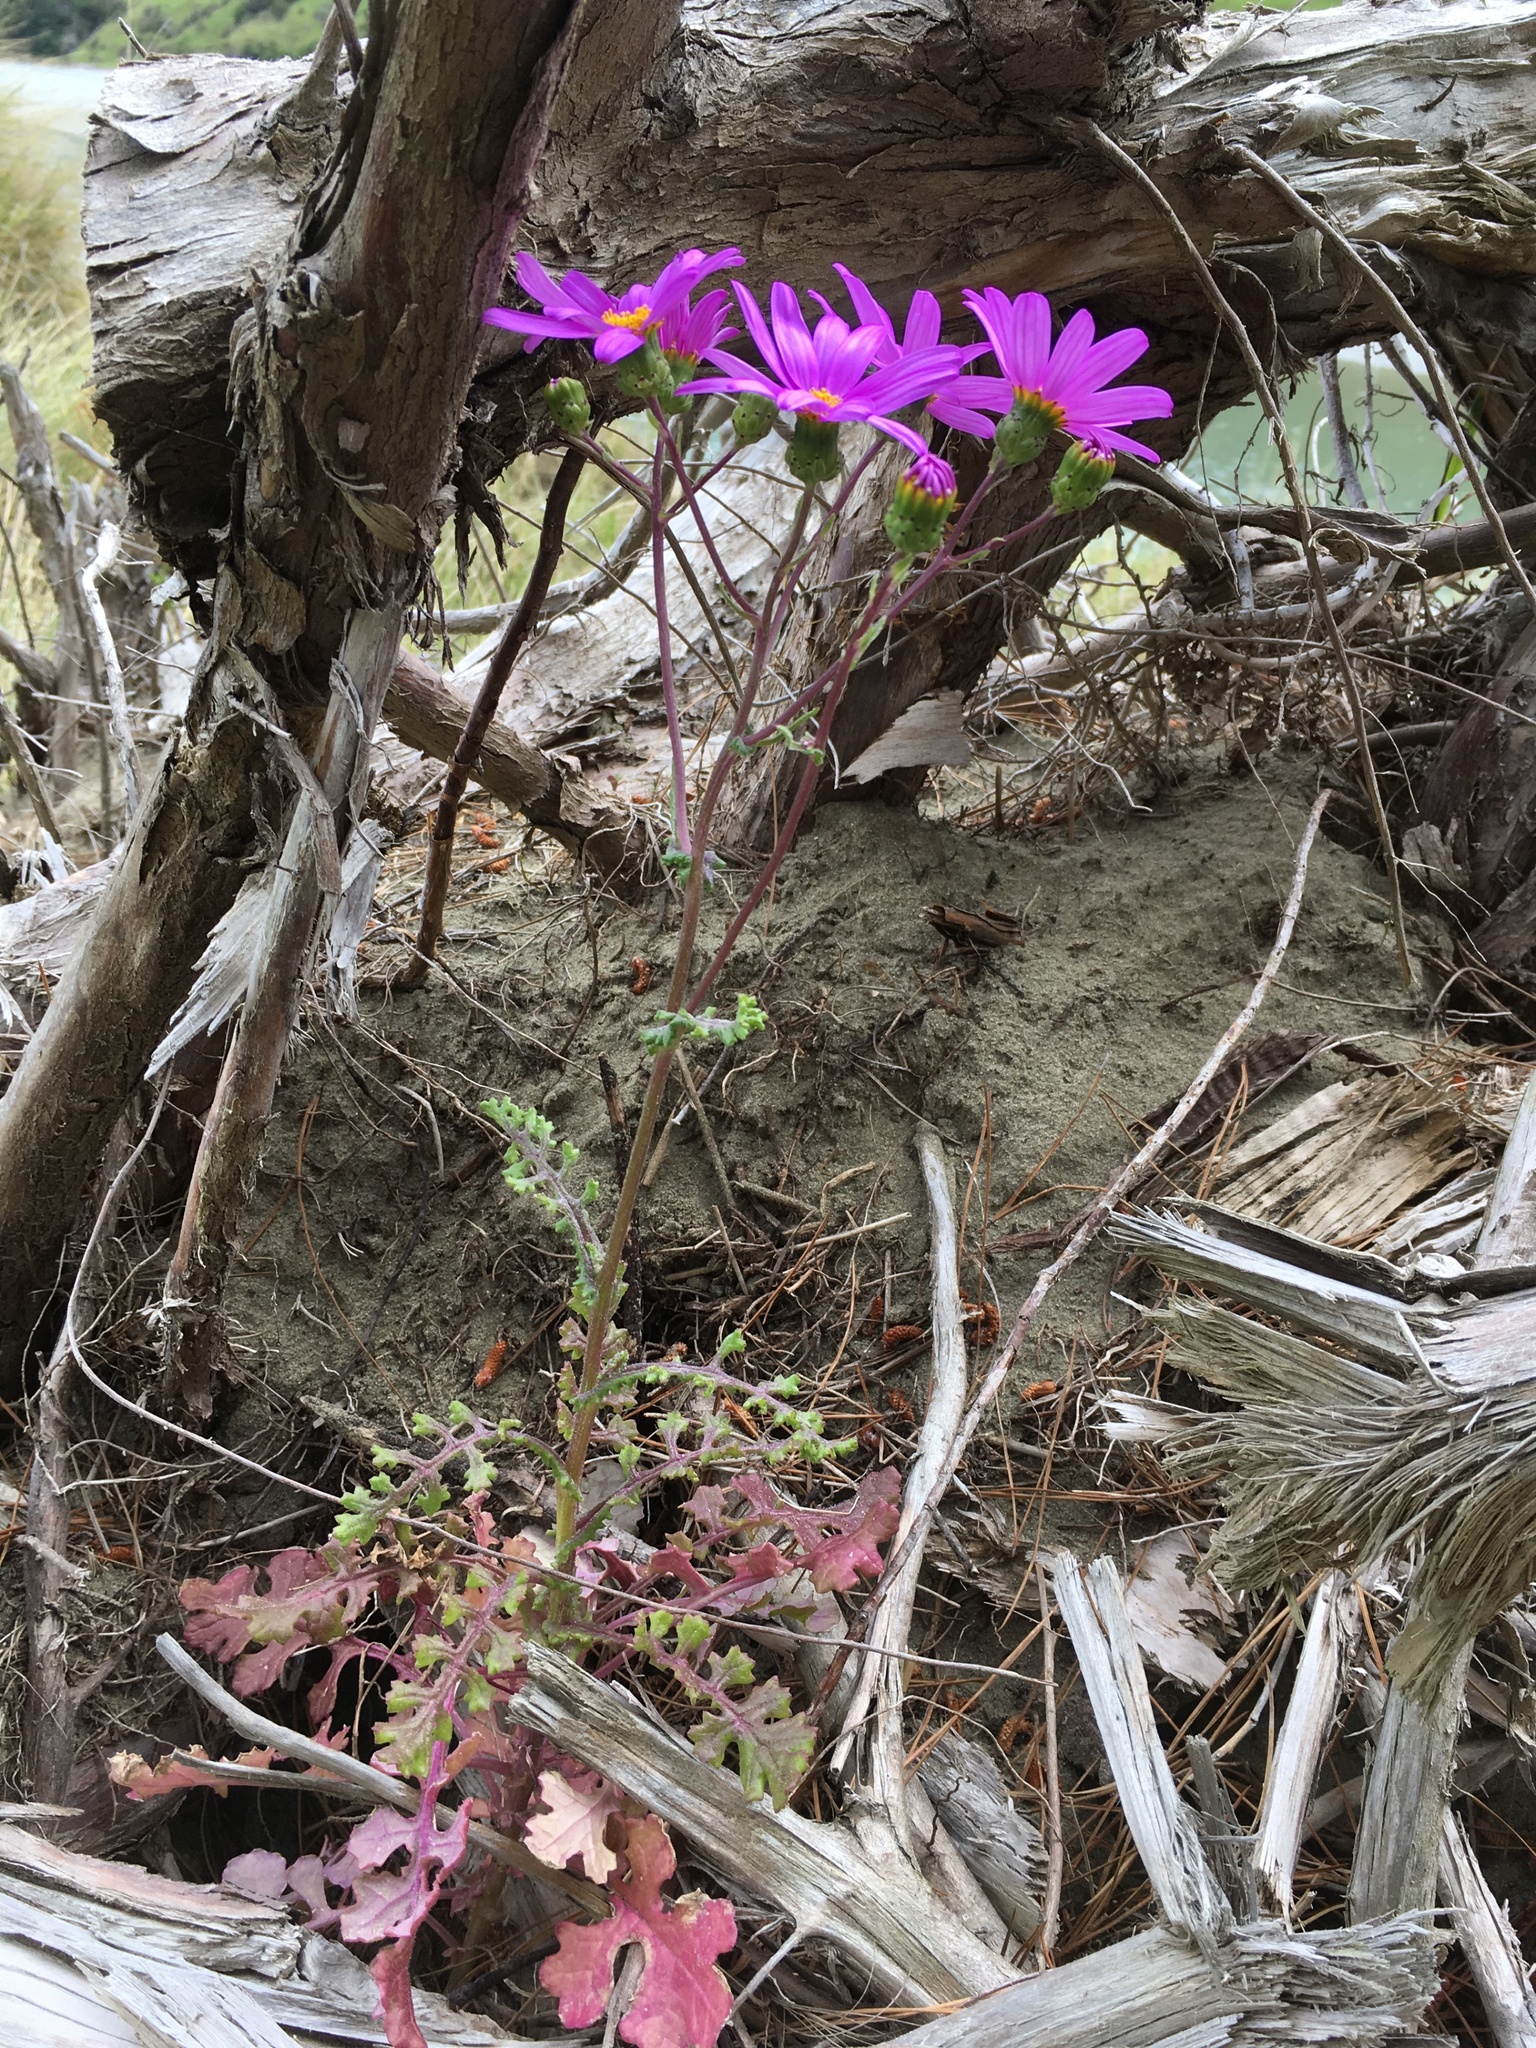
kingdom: Plantae
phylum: Tracheophyta
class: Magnoliopsida
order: Asterales
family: Asteraceae
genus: Senecio
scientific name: Senecio elegans
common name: Purple groundsel
